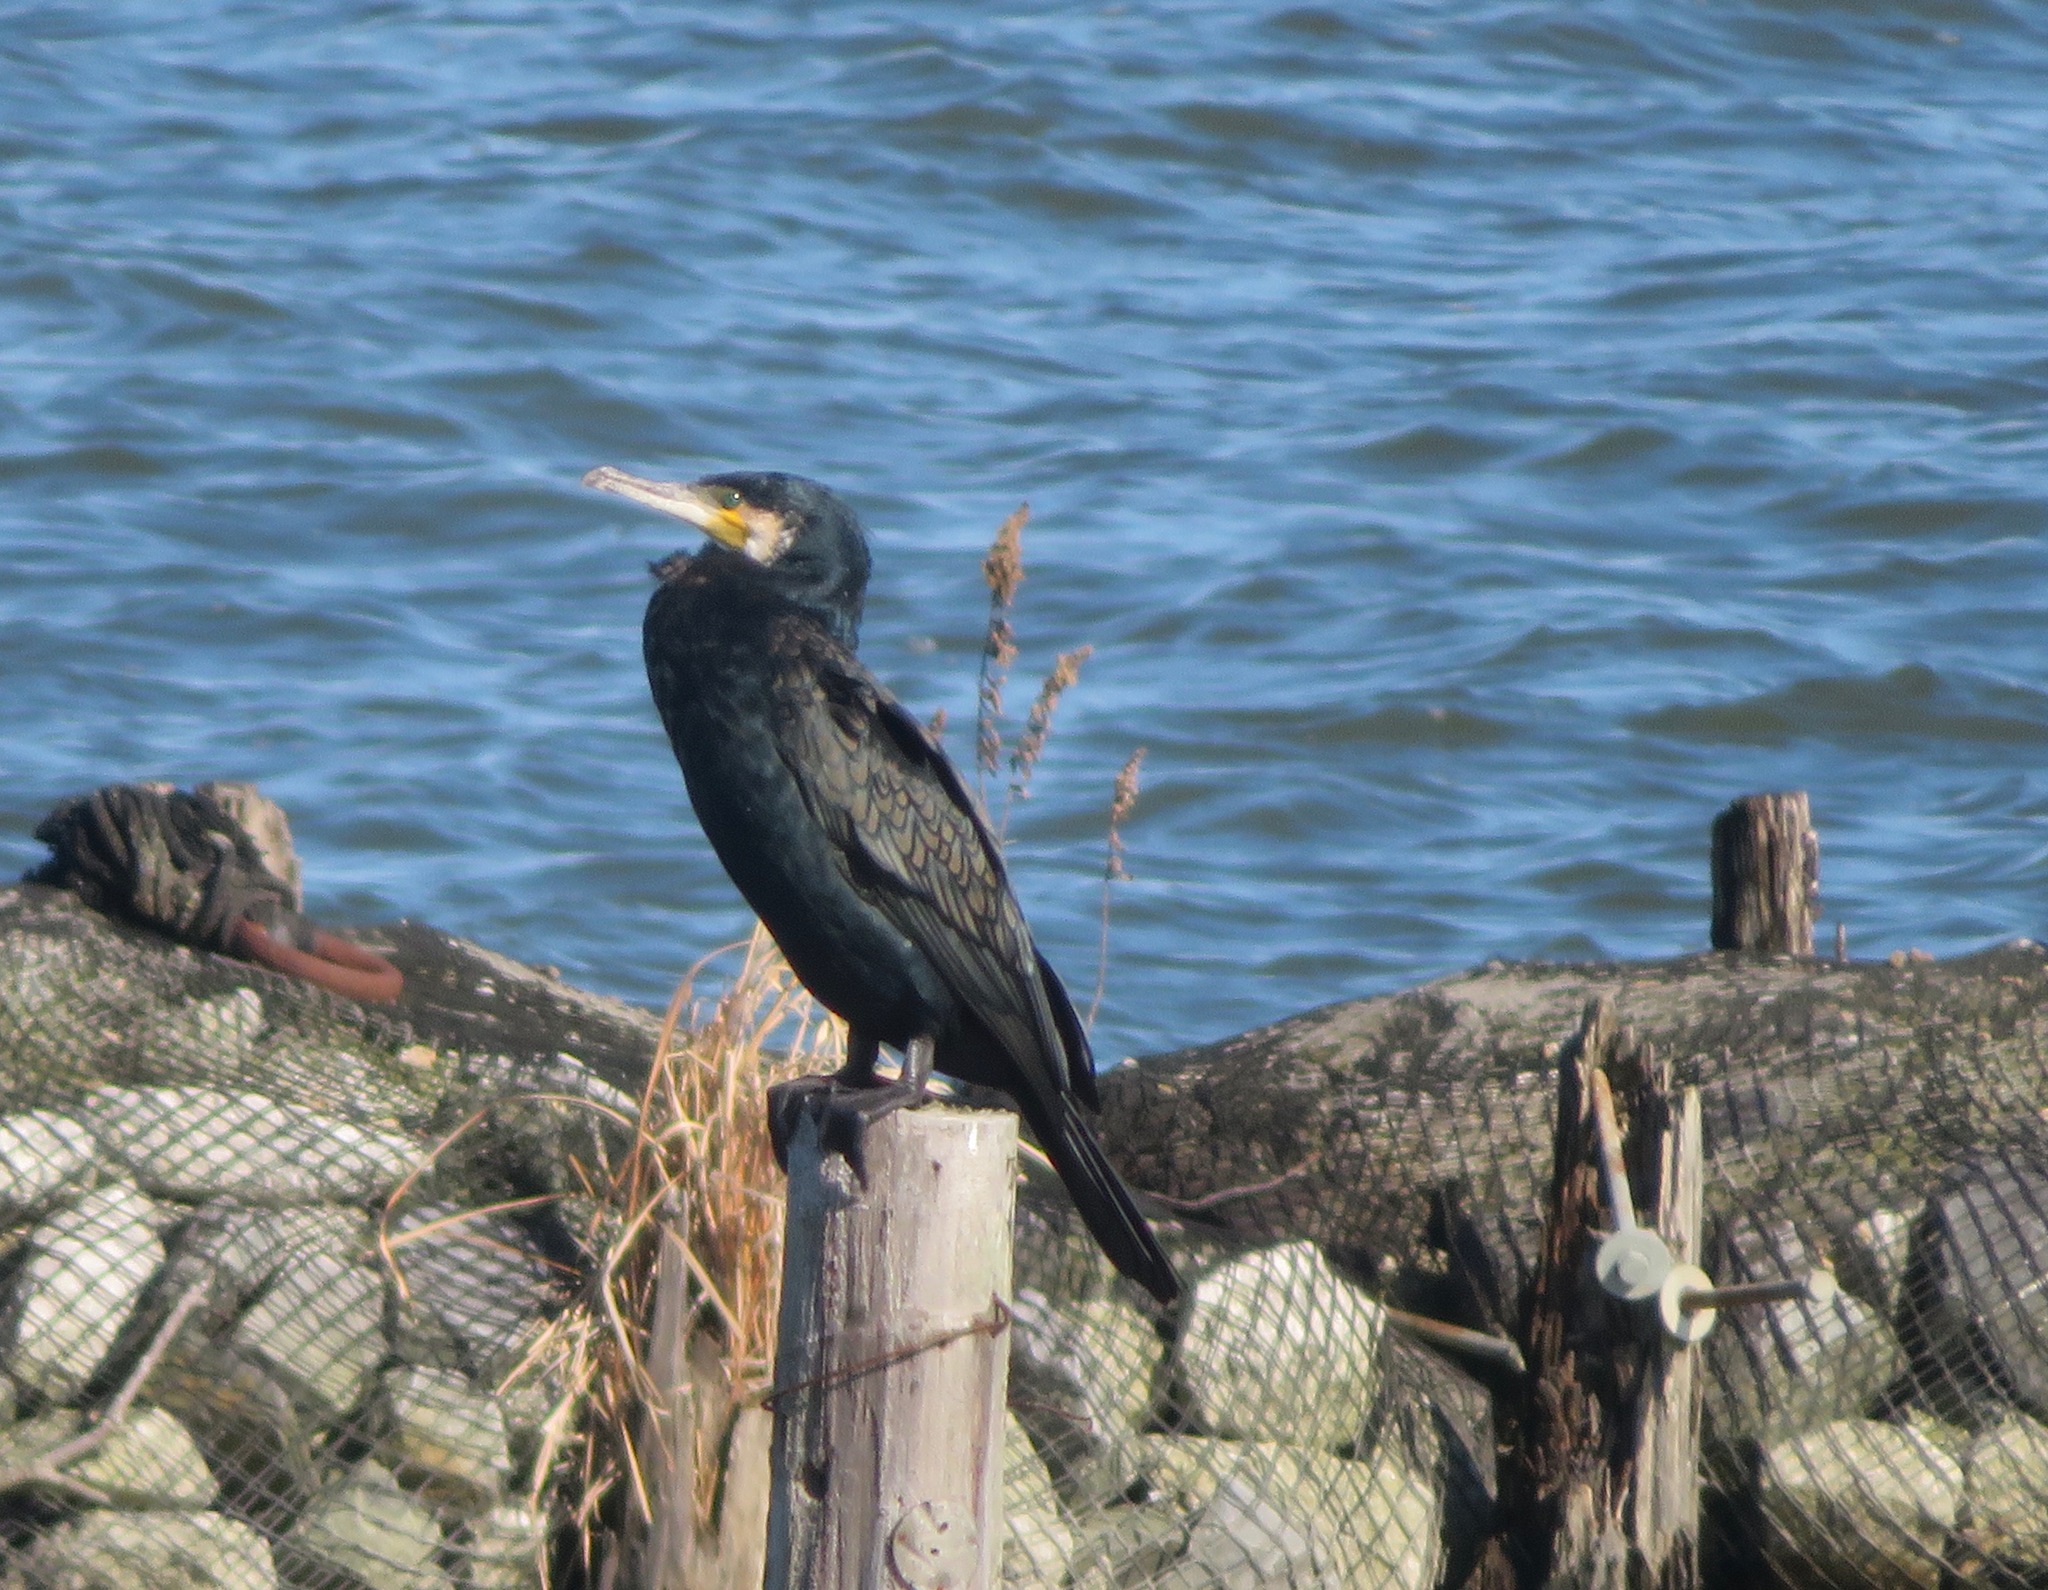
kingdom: Animalia
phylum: Chordata
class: Aves
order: Suliformes
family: Phalacrocoracidae
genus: Phalacrocorax
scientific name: Phalacrocorax carbo
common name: Great cormorant
